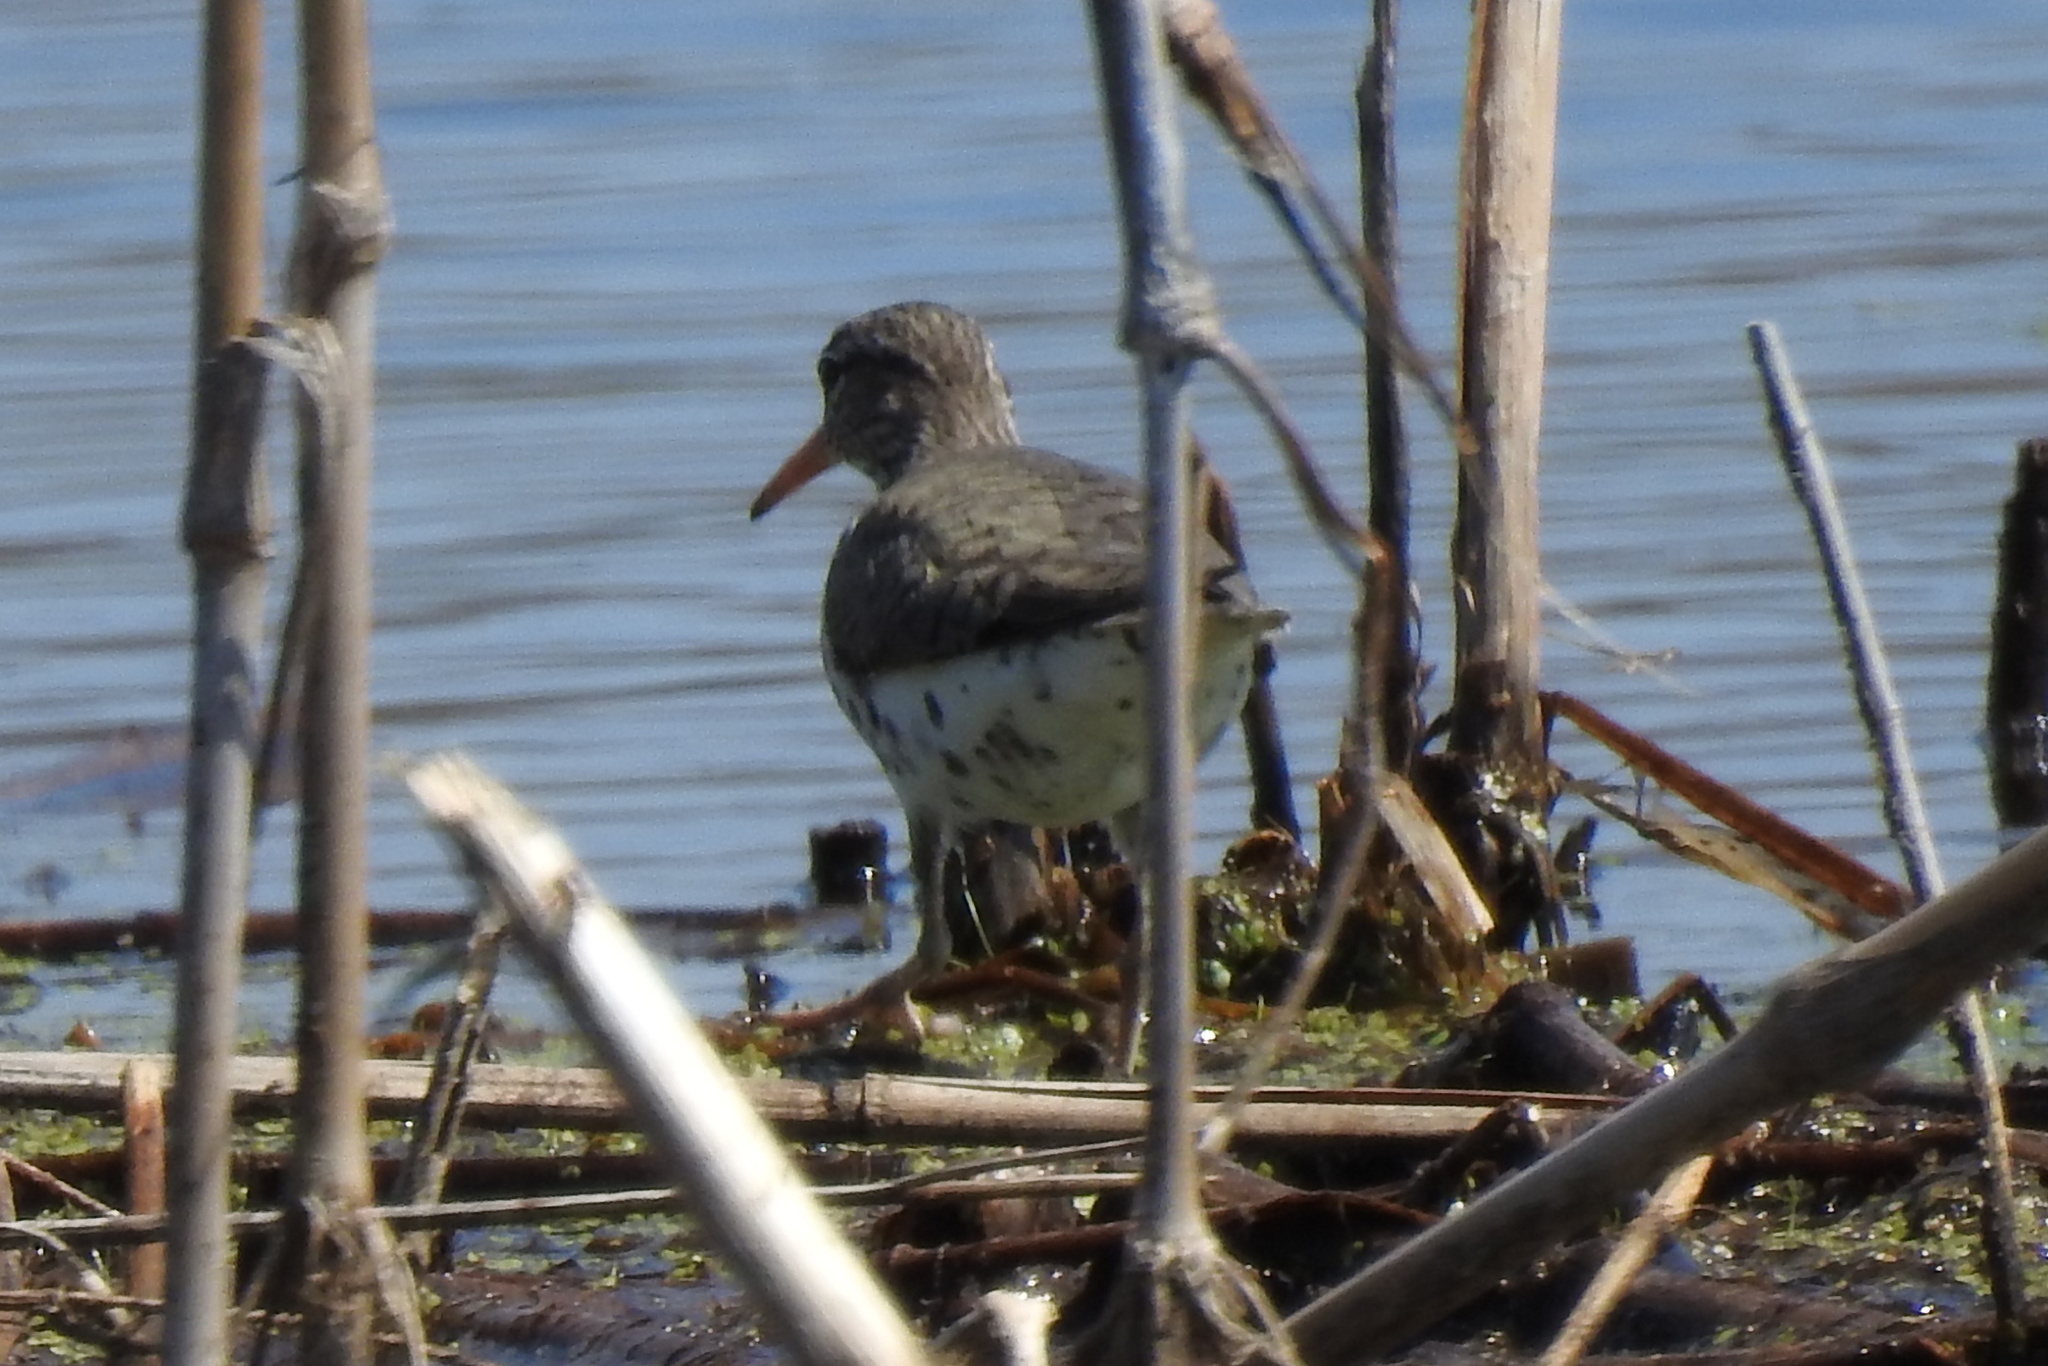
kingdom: Animalia
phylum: Chordata
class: Aves
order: Charadriiformes
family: Scolopacidae
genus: Actitis
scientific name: Actitis macularius
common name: Spotted sandpiper
